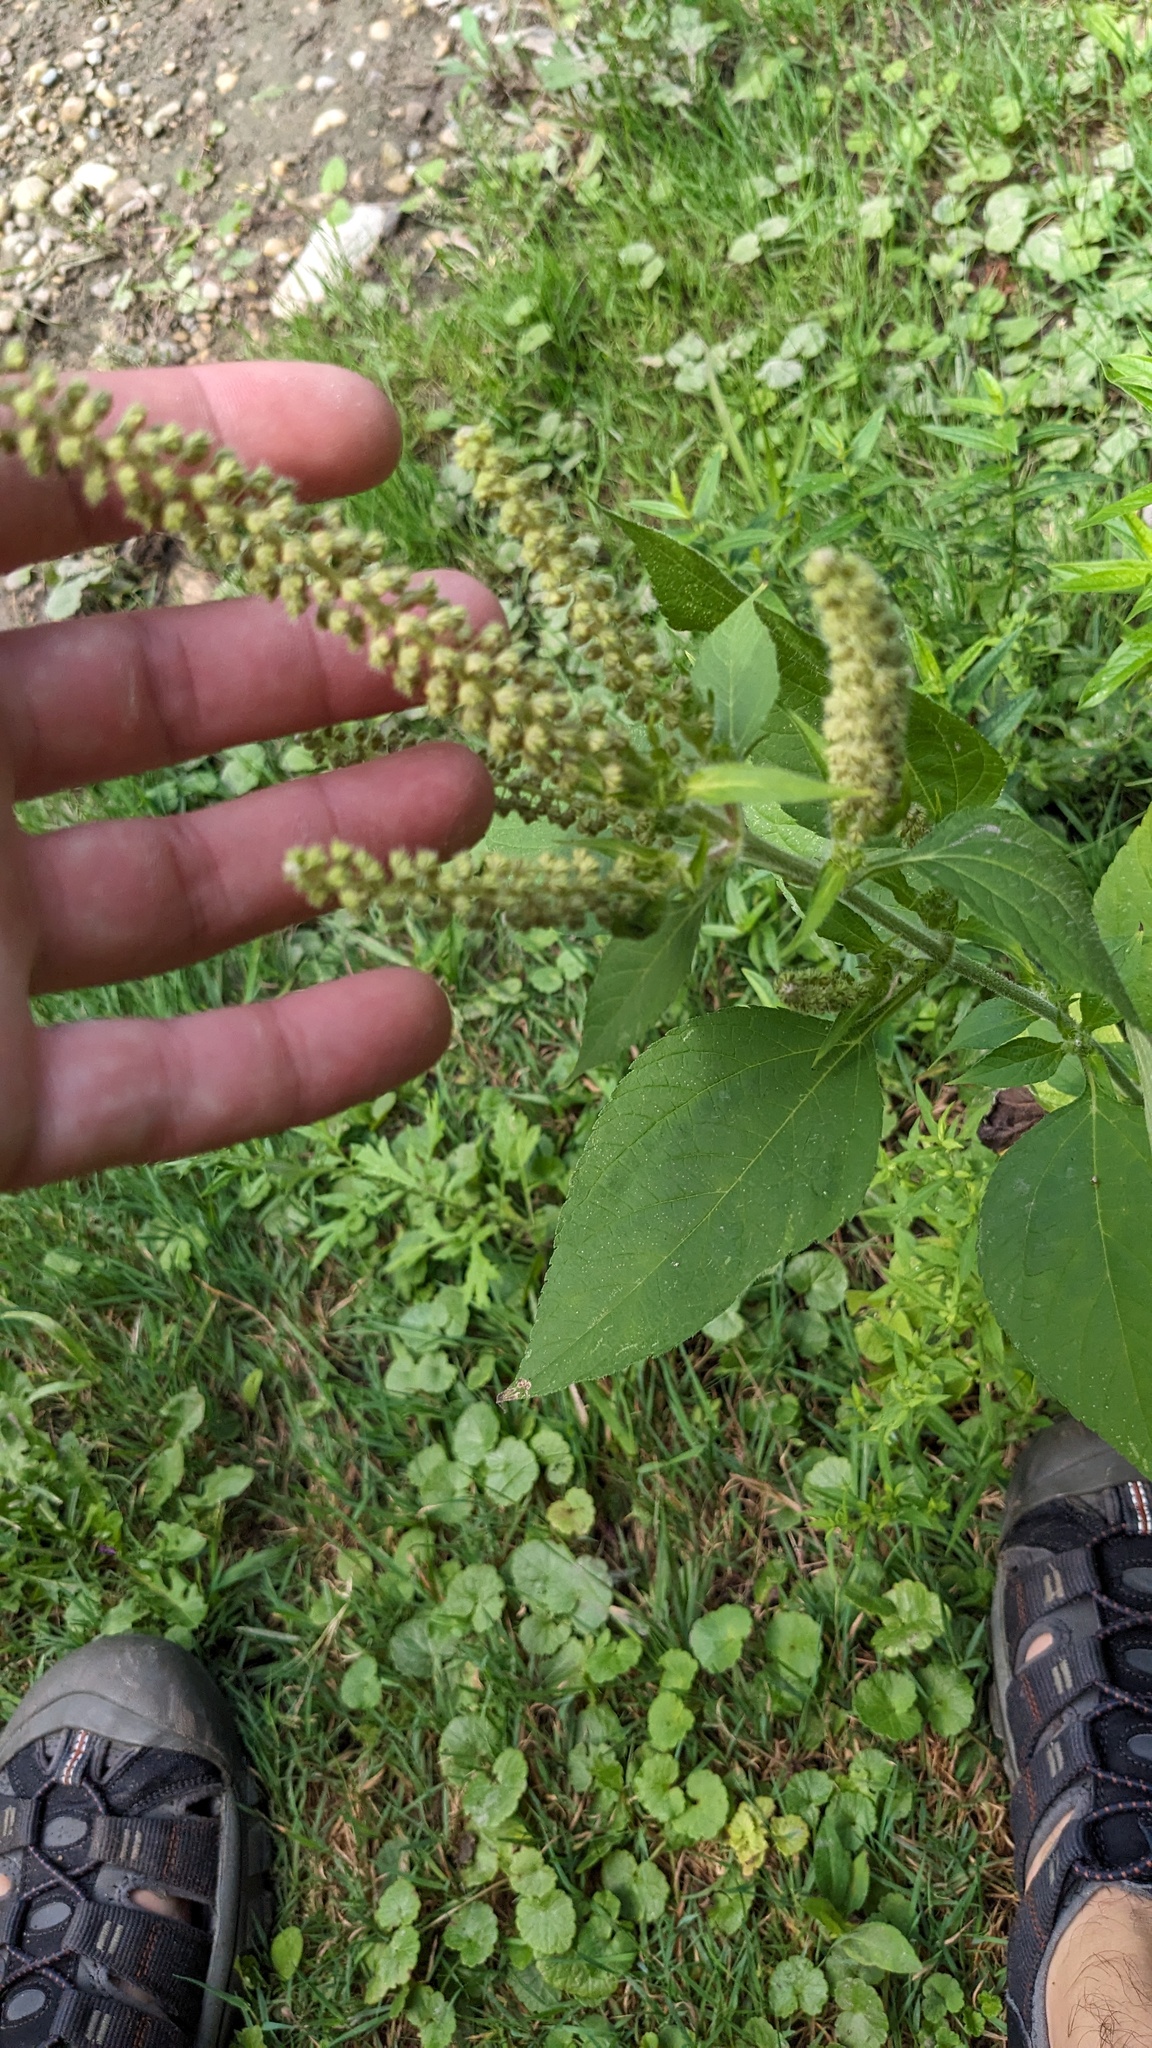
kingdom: Plantae
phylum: Tracheophyta
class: Magnoliopsida
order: Asterales
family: Asteraceae
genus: Ambrosia
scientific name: Ambrosia trifida
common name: Giant ragweed
